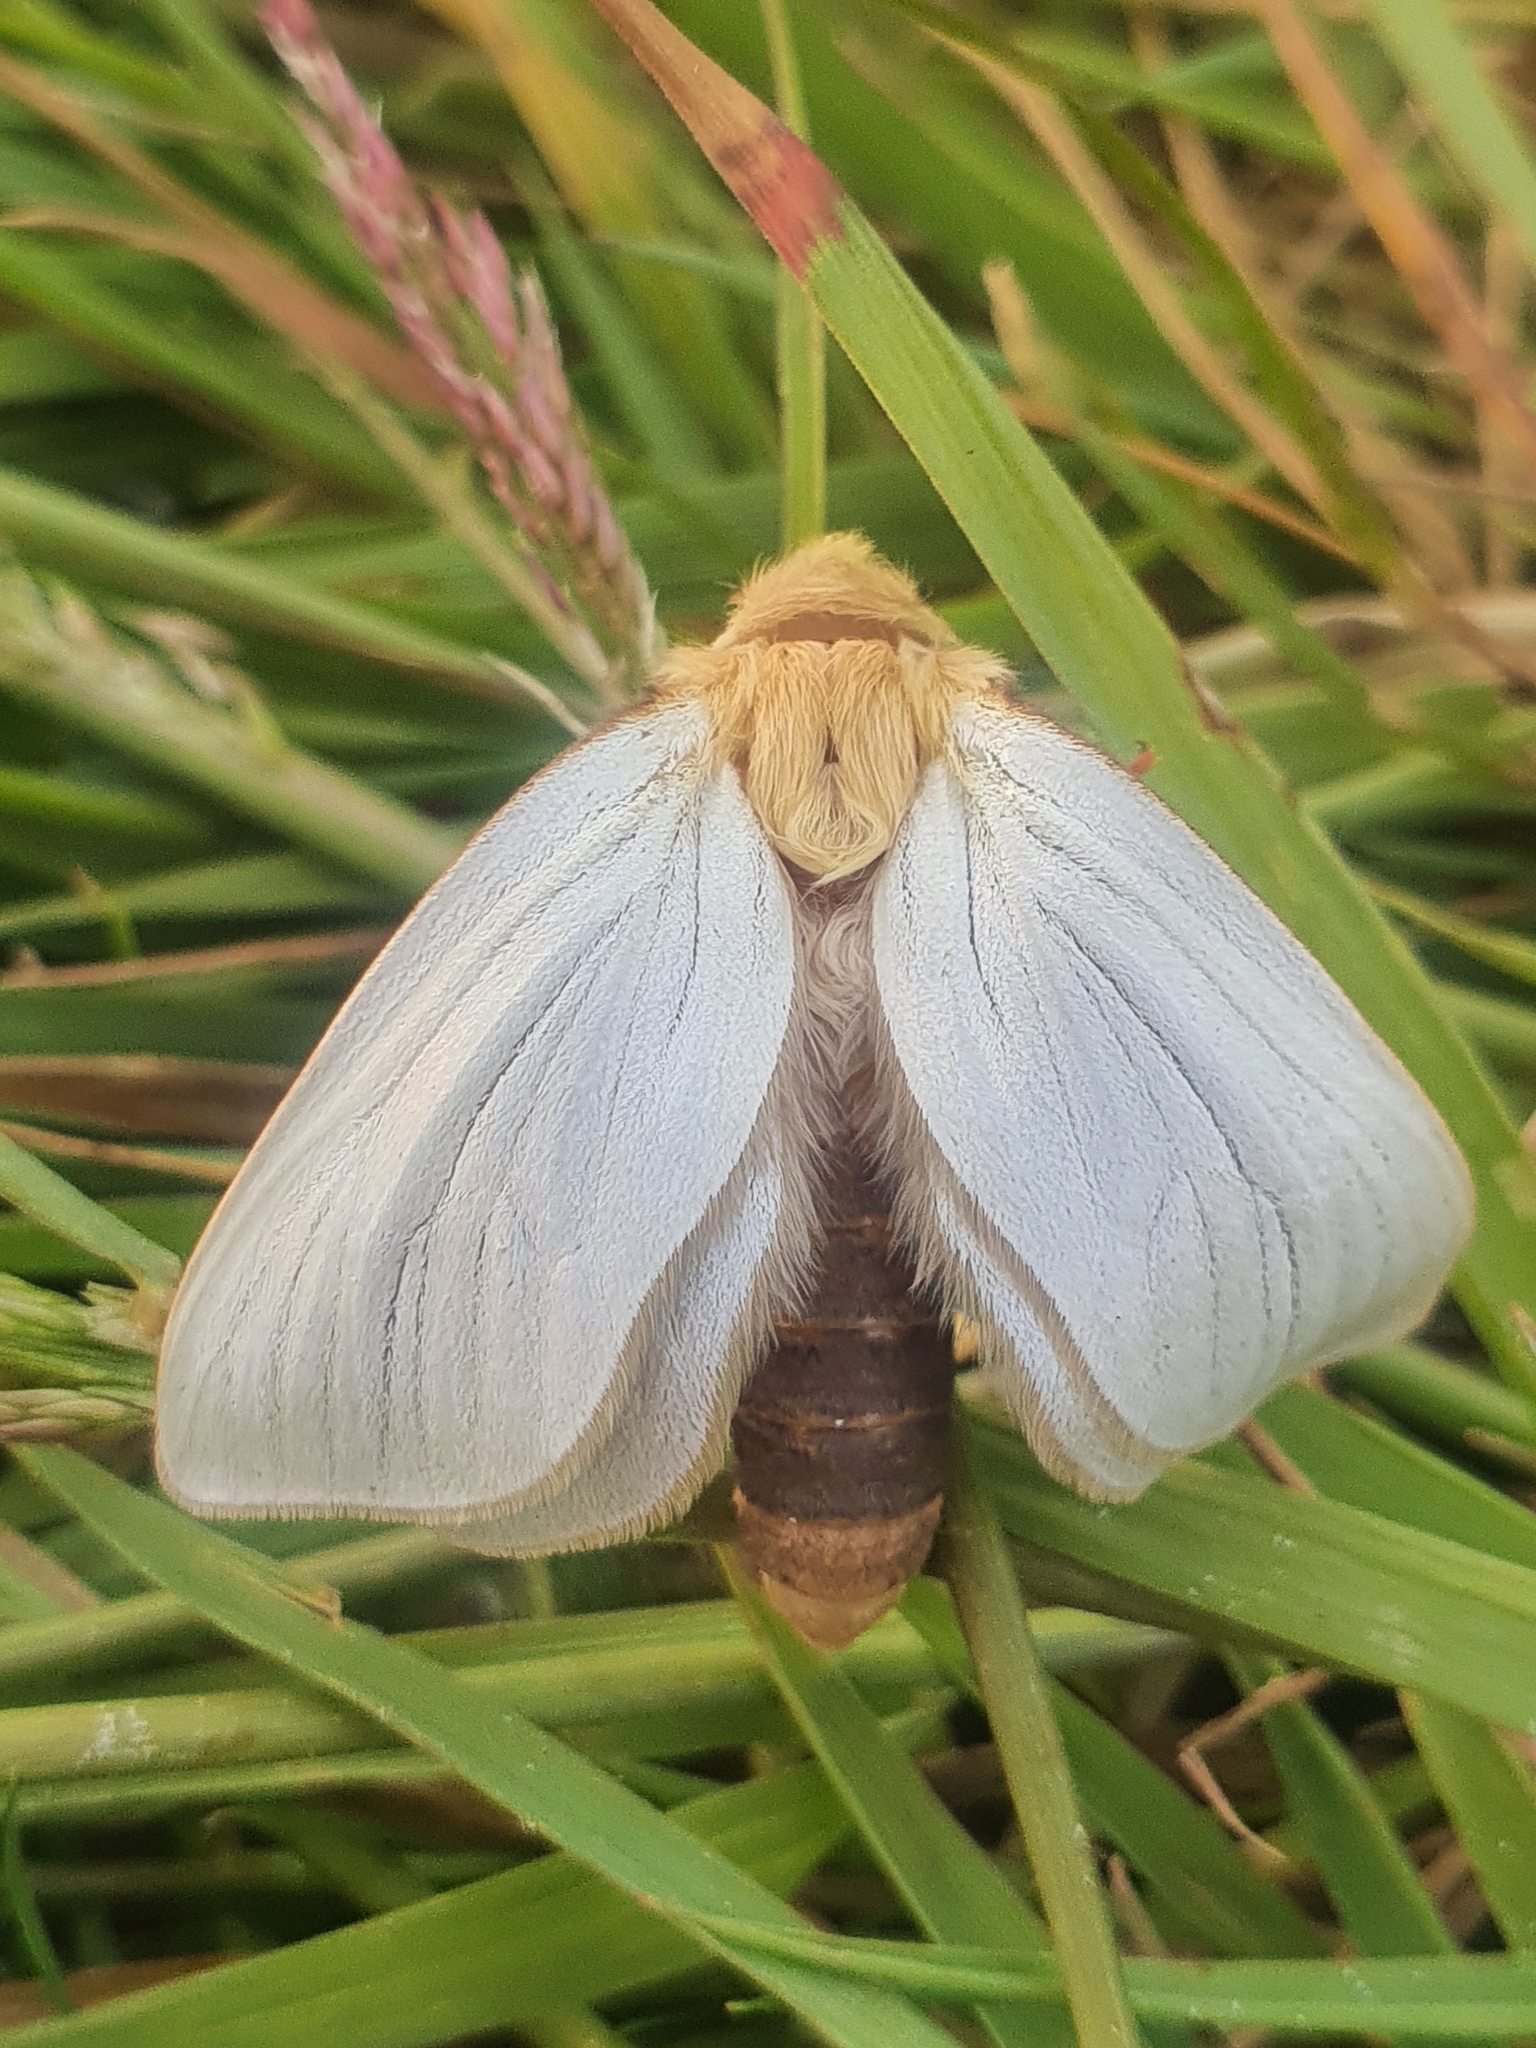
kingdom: Animalia
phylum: Arthropoda
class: Insecta
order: Lepidoptera
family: Hepialidae
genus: Hepialus
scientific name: Hepialus humuli
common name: Ghost moth
